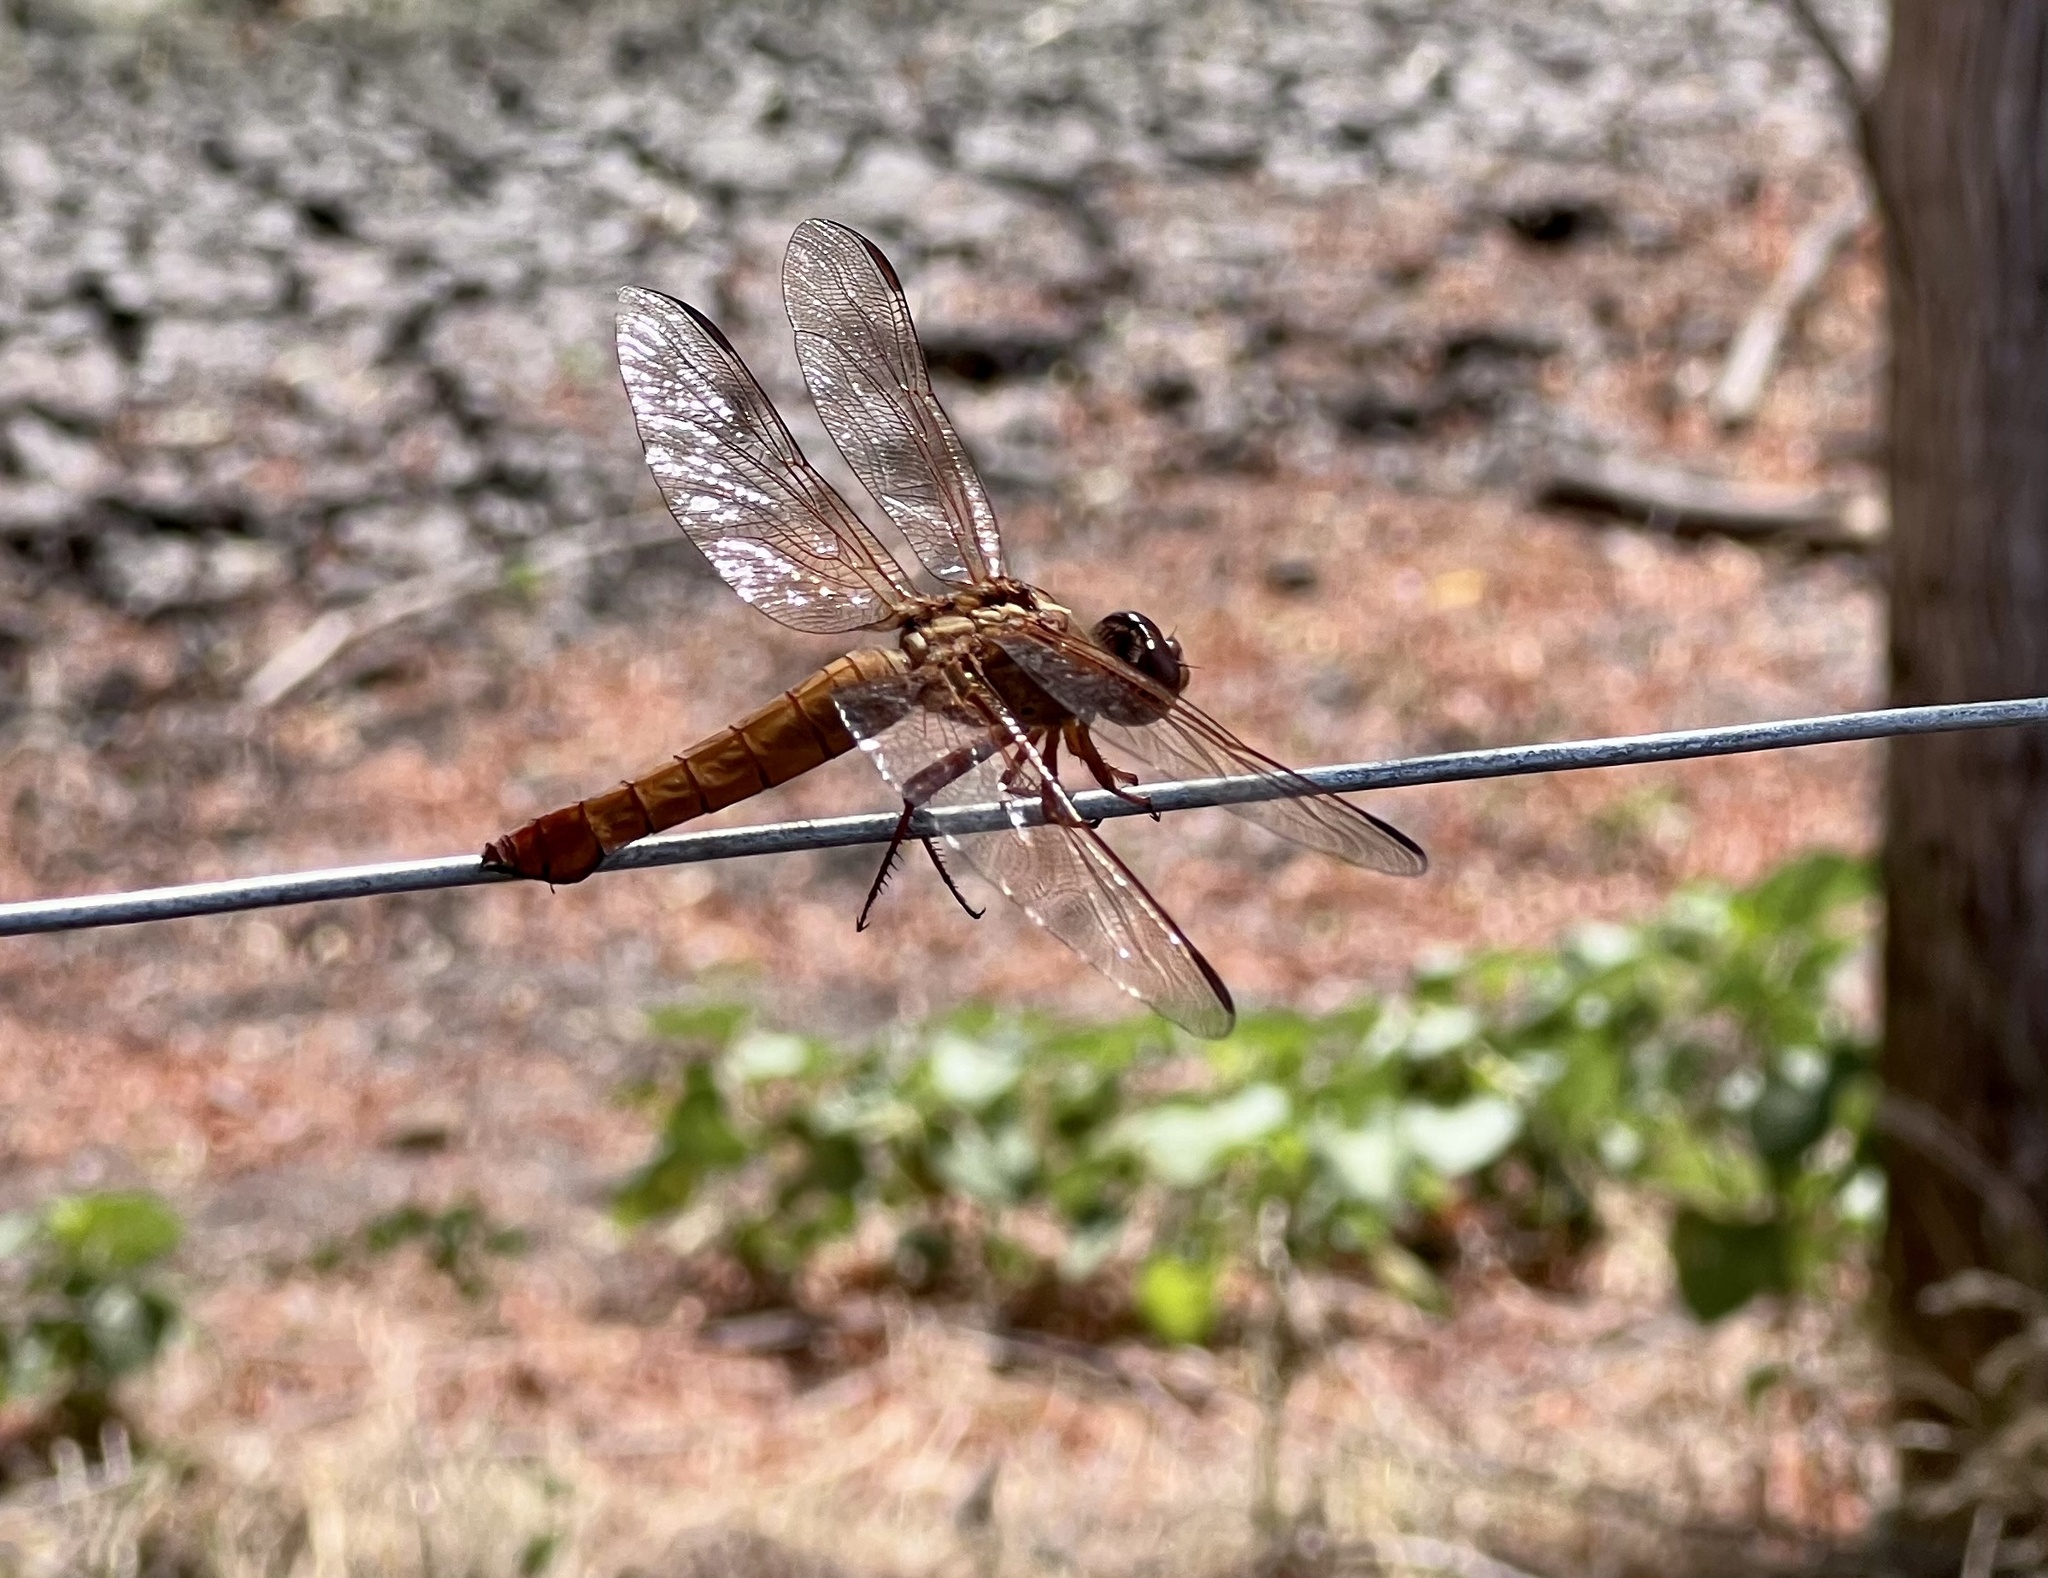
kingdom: Animalia
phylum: Arthropoda
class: Insecta
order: Odonata
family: Libellulidae
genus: Libellula
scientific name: Libellula croceipennis
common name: Neon skimmer
